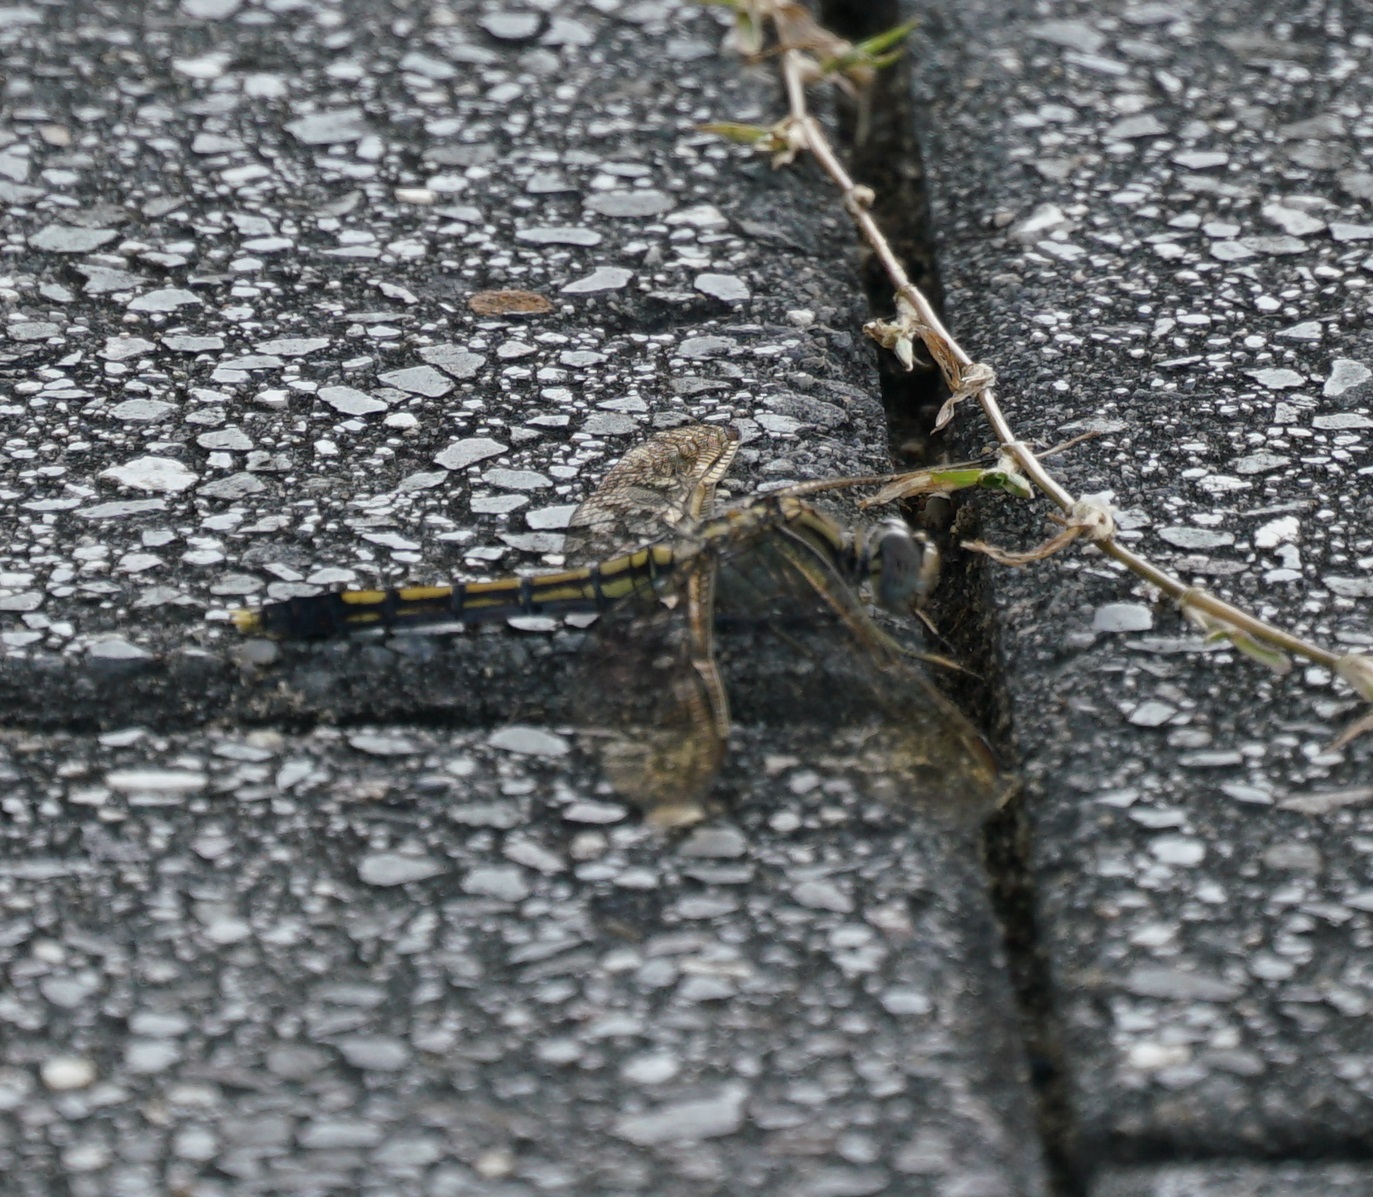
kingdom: Animalia
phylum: Arthropoda
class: Insecta
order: Odonata
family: Libellulidae
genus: Orthetrum
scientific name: Orthetrum caledonicum
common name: Blue skimmer
